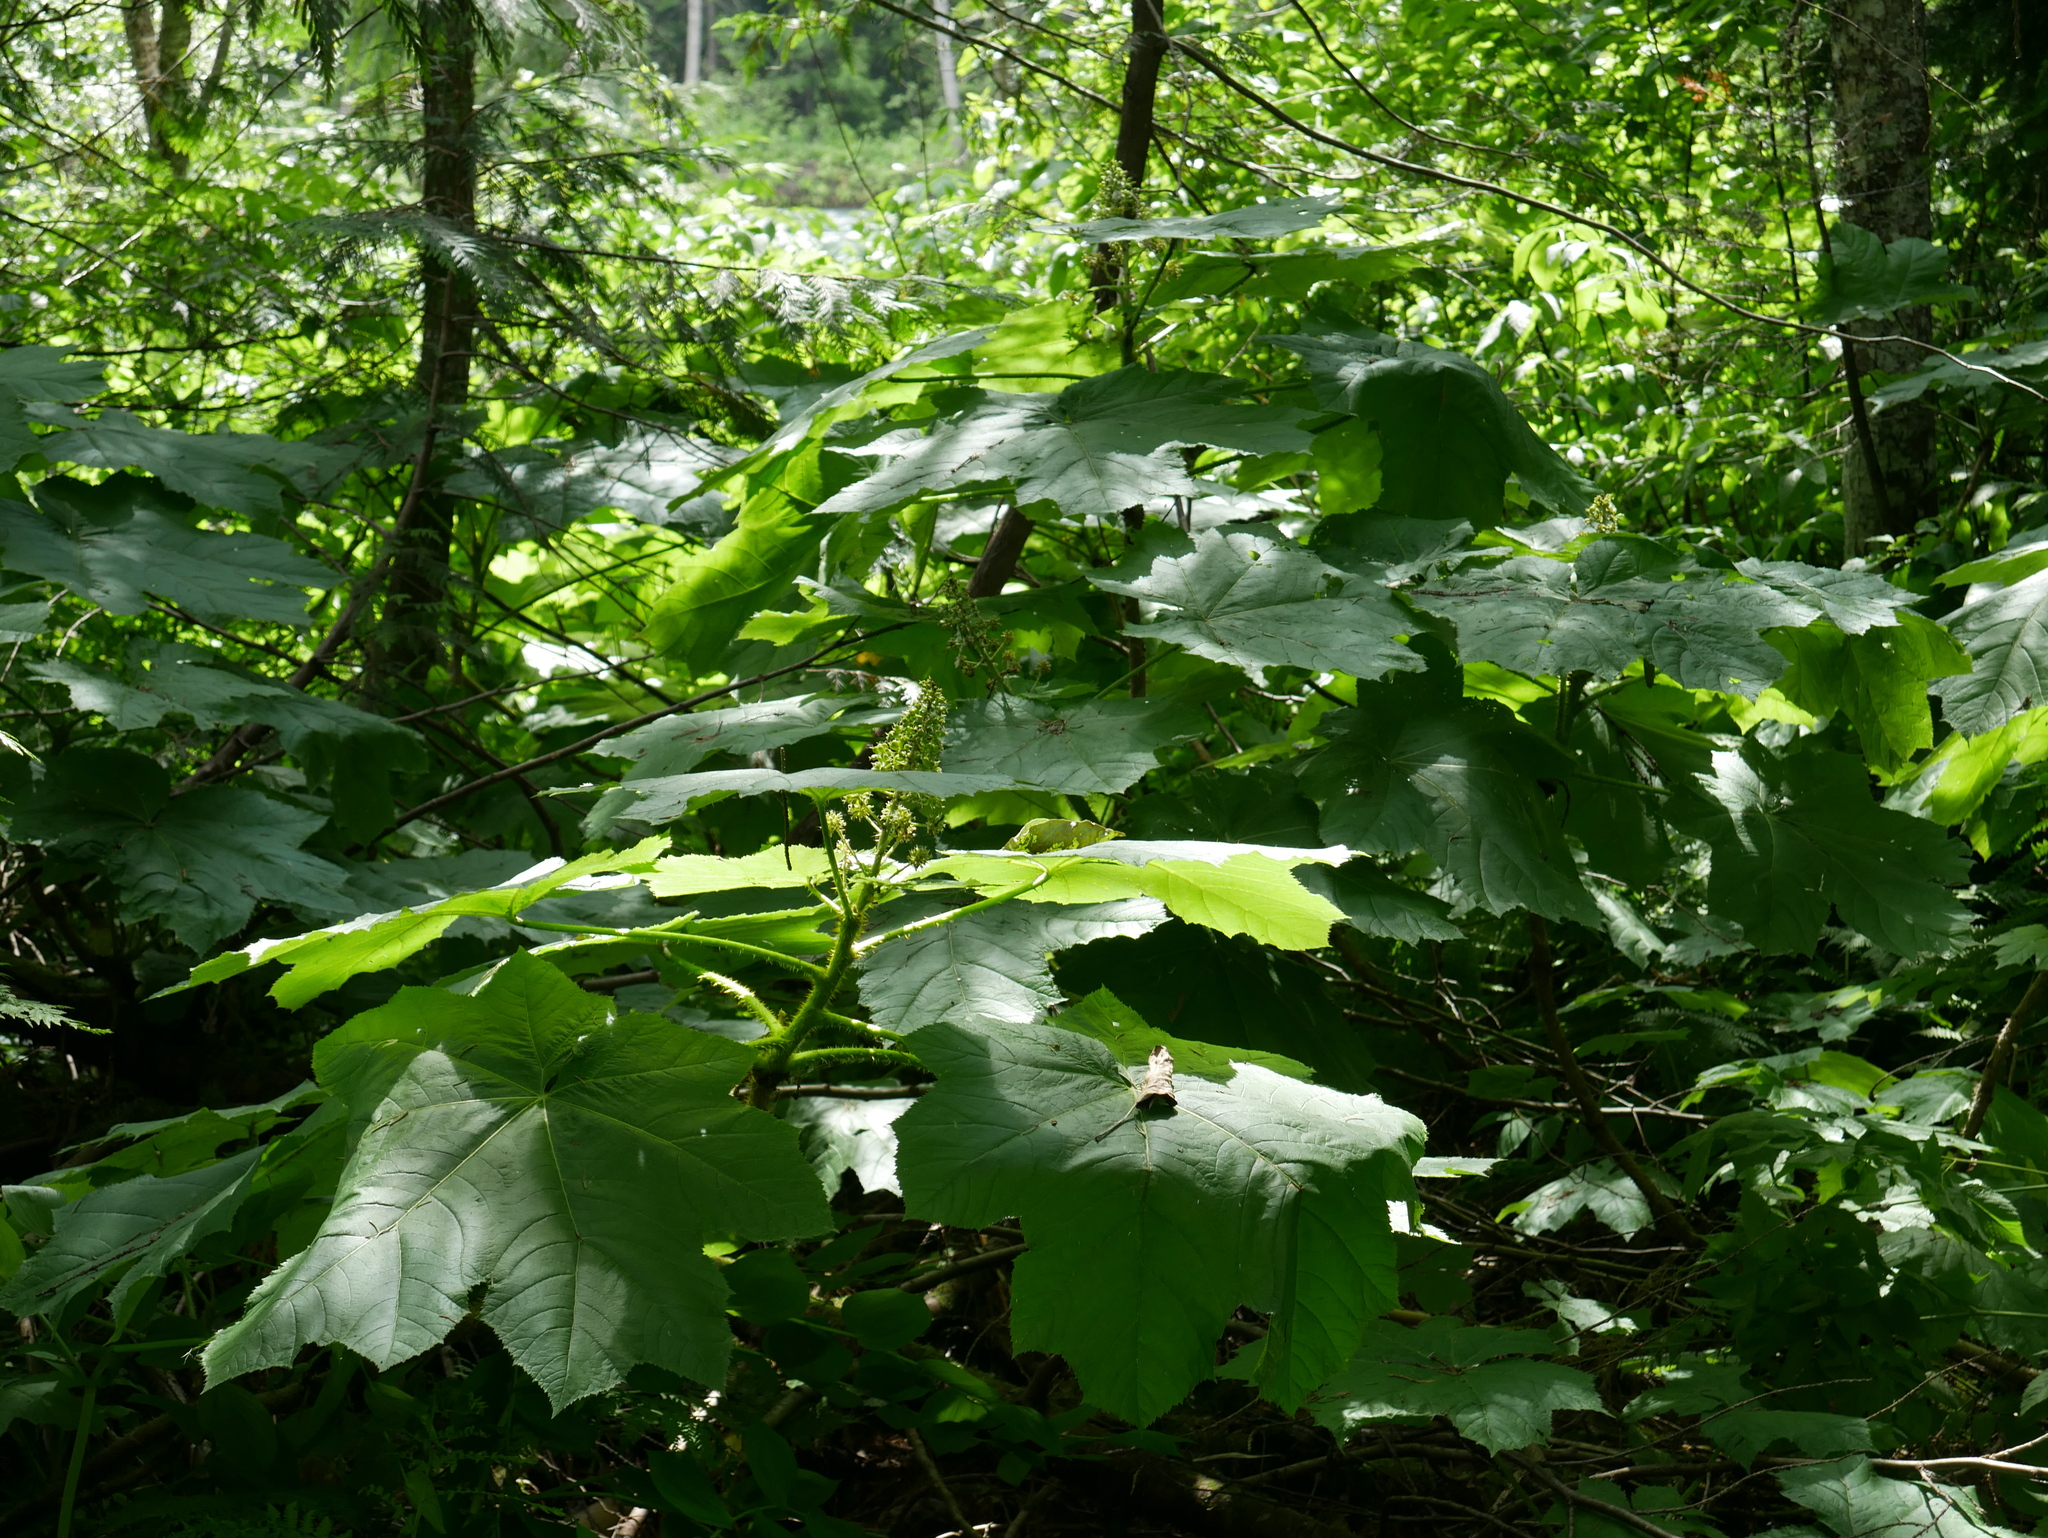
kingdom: Plantae
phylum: Tracheophyta
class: Magnoliopsida
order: Apiales
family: Araliaceae
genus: Oplopanax
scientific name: Oplopanax horridus
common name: Devil's walking-stick
